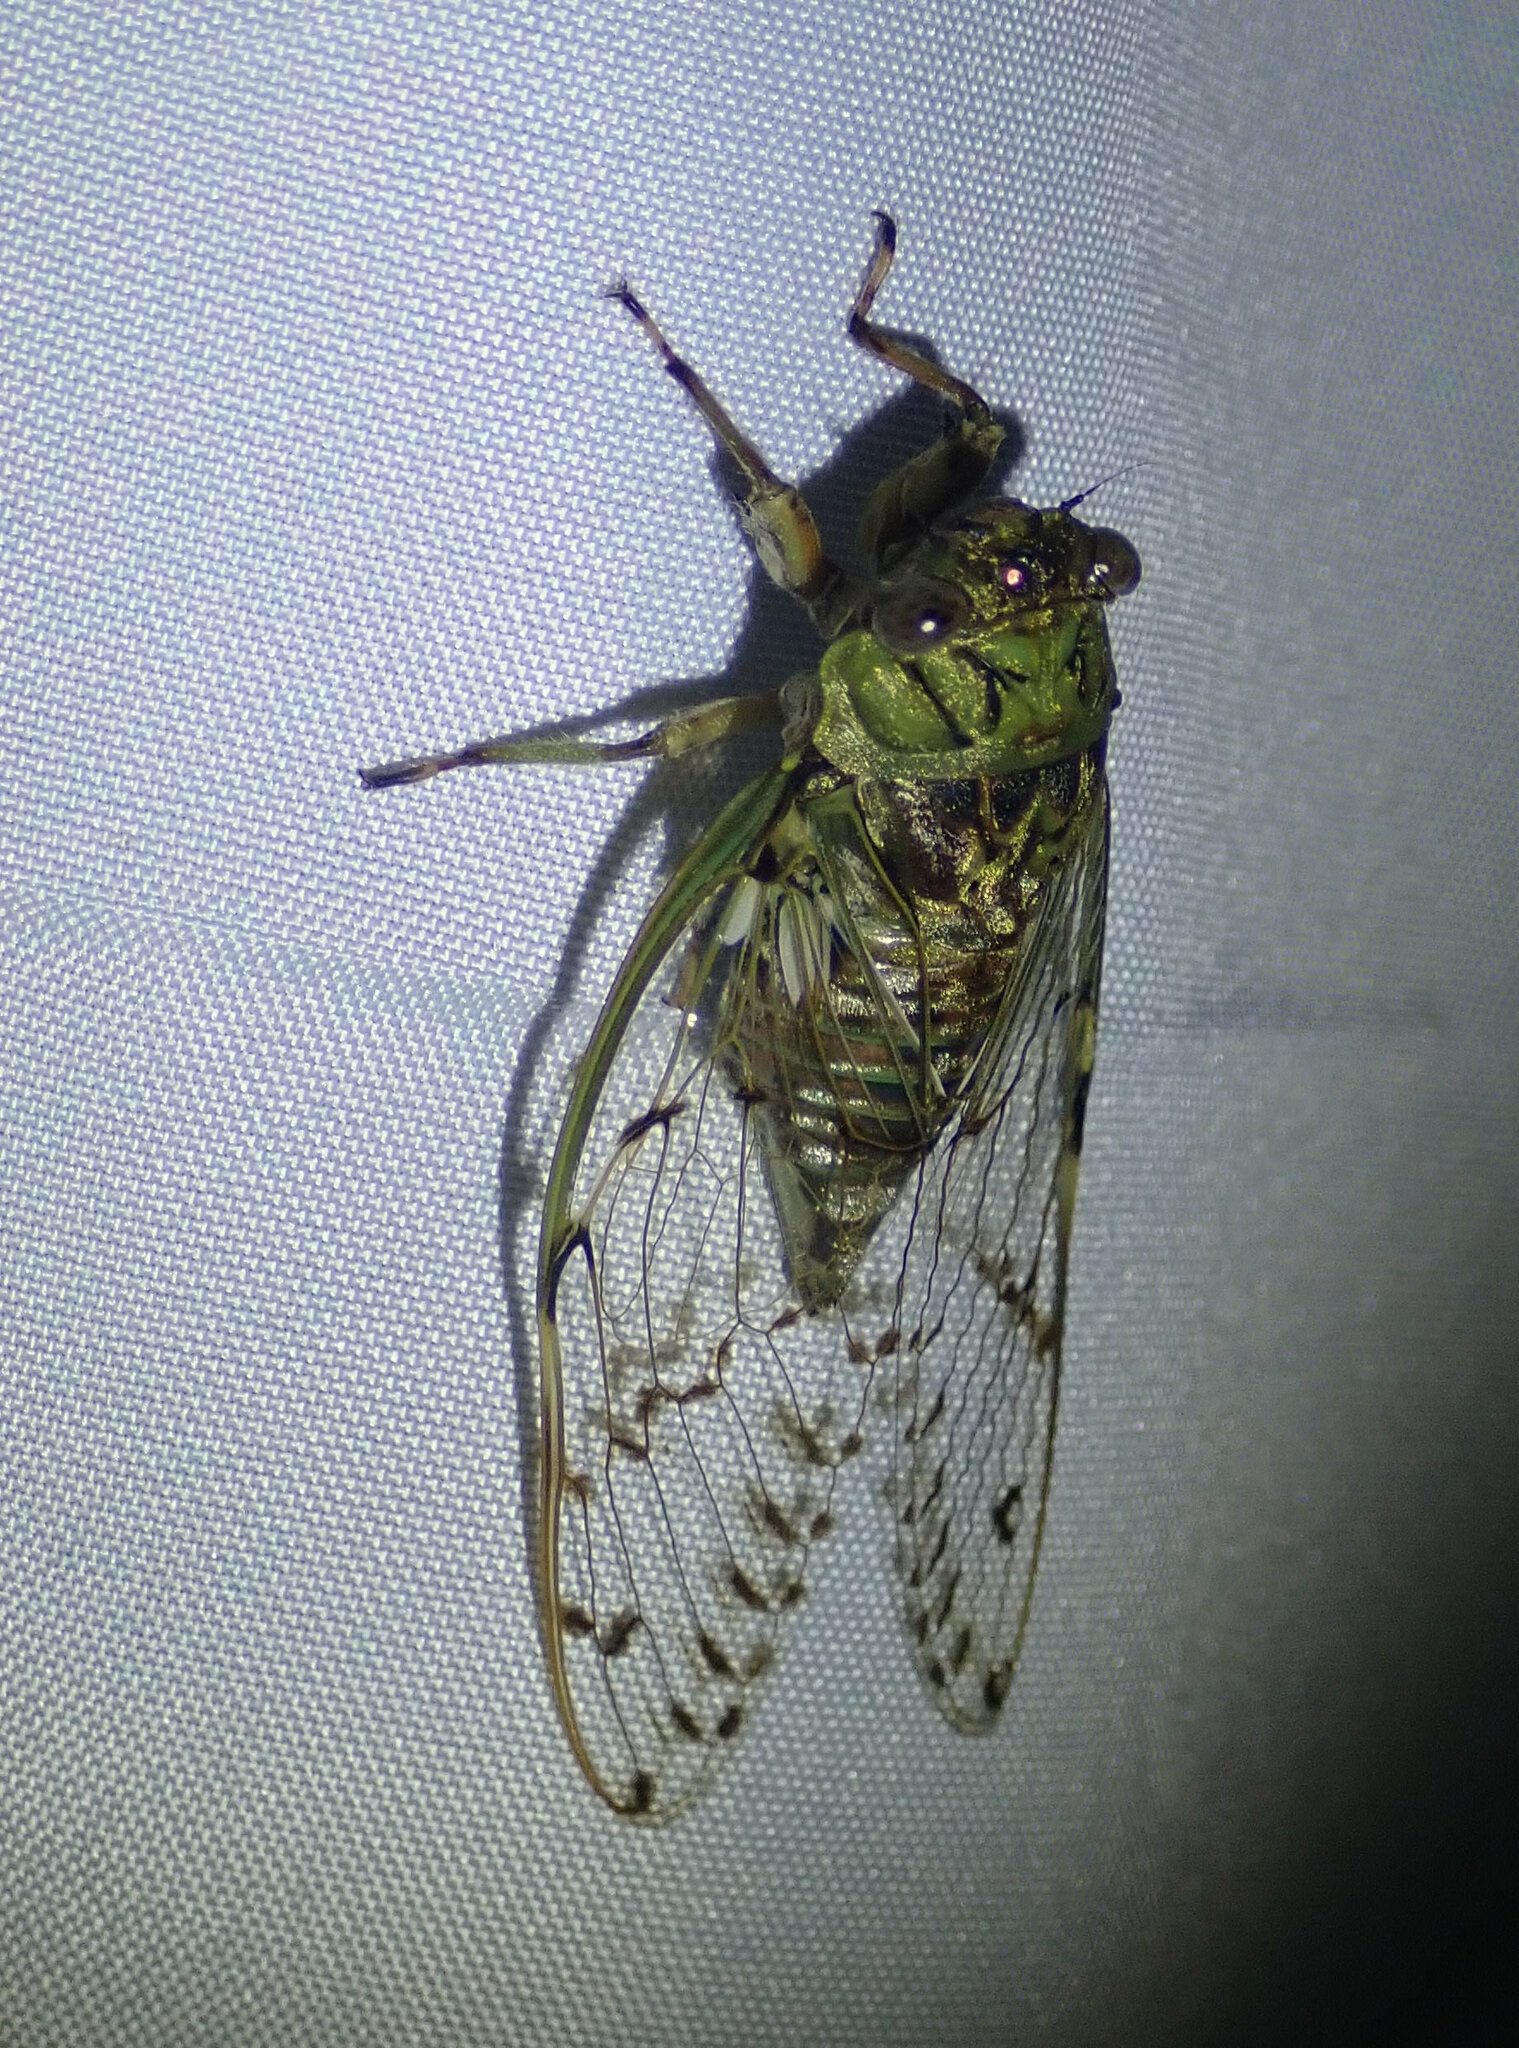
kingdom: Animalia
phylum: Arthropoda
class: Insecta
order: Hemiptera
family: Cicadidae
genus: Proarna
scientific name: Proarna sallei
